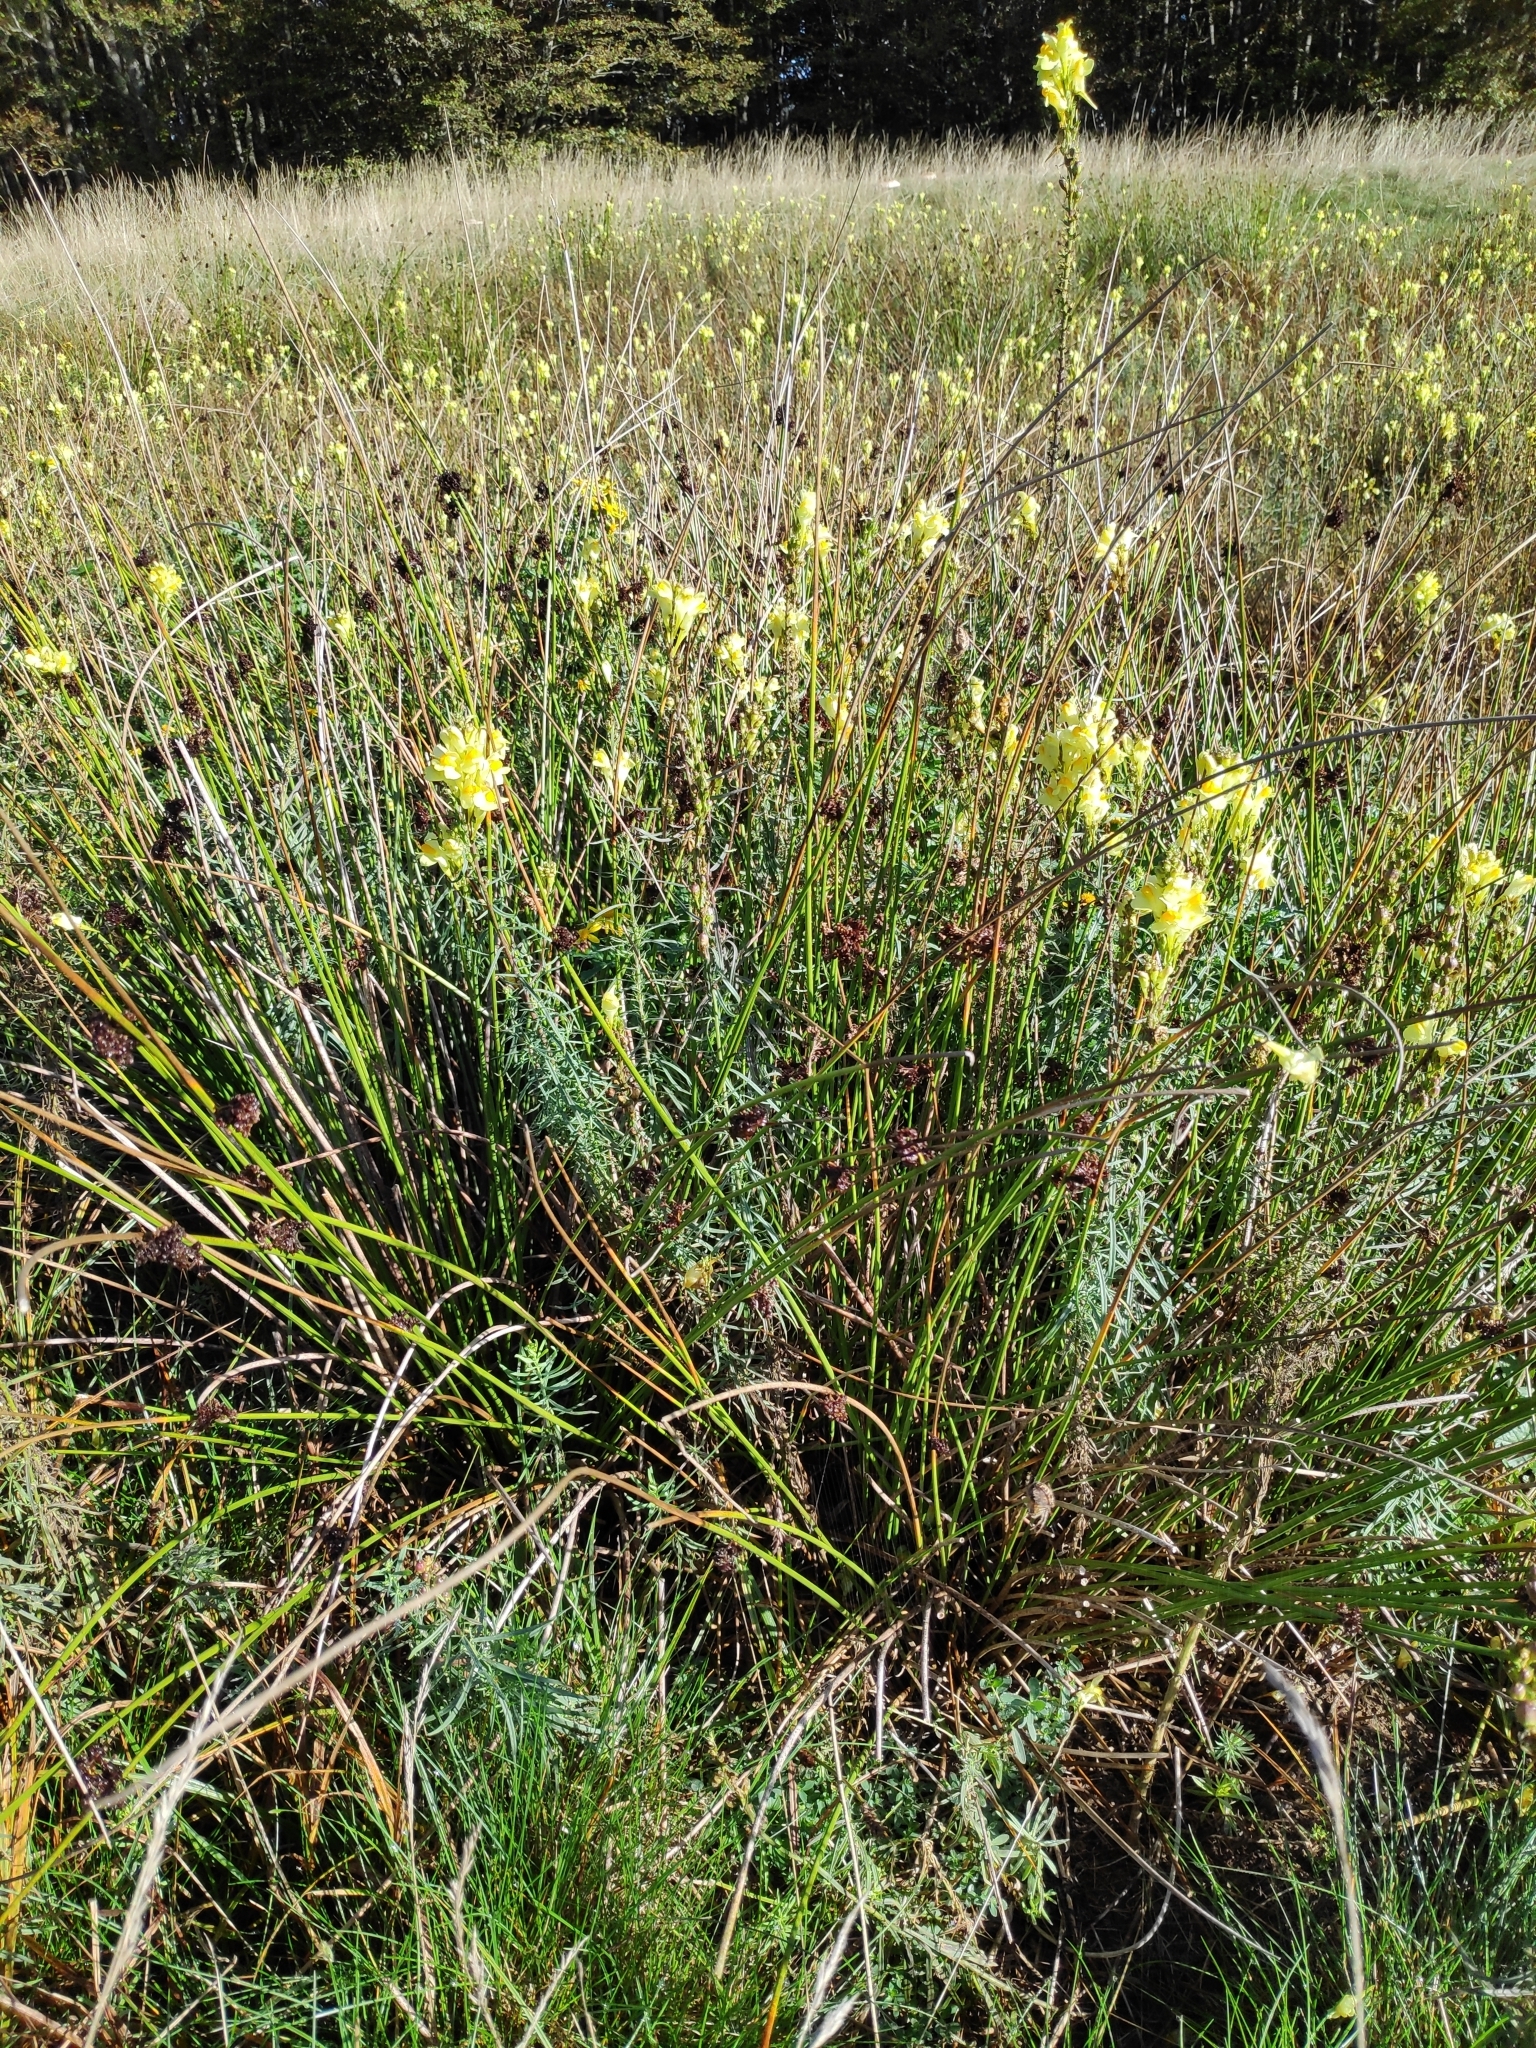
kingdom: Plantae
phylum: Tracheophyta
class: Magnoliopsida
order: Lamiales
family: Plantaginaceae
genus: Linaria
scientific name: Linaria vulgaris
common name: Butter and eggs
